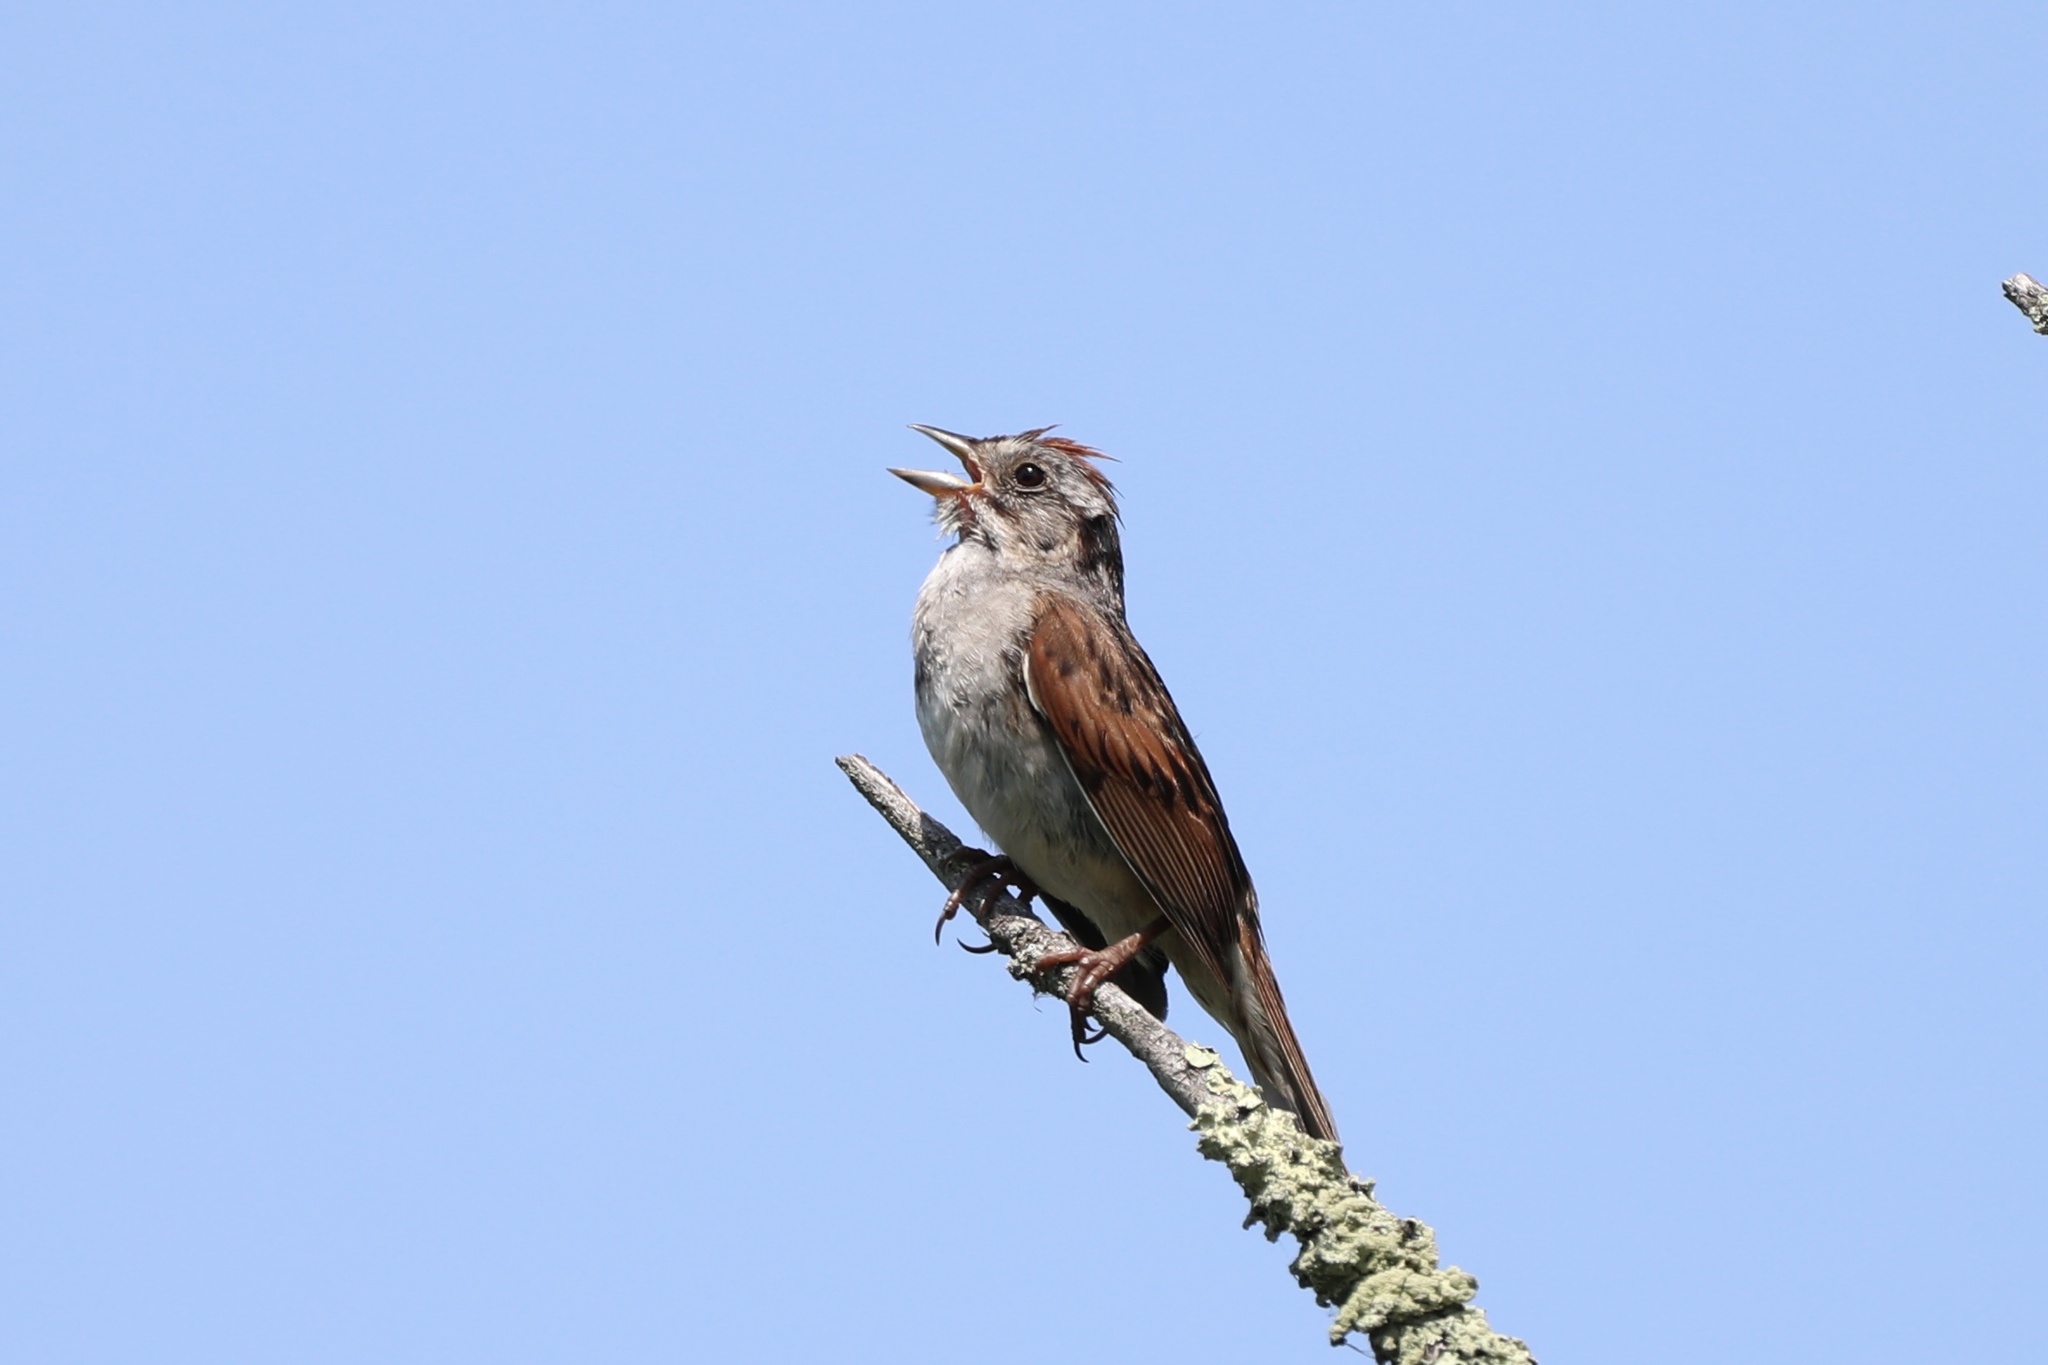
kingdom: Animalia
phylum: Chordata
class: Aves
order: Passeriformes
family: Passerellidae
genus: Melospiza
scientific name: Melospiza georgiana
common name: Swamp sparrow
